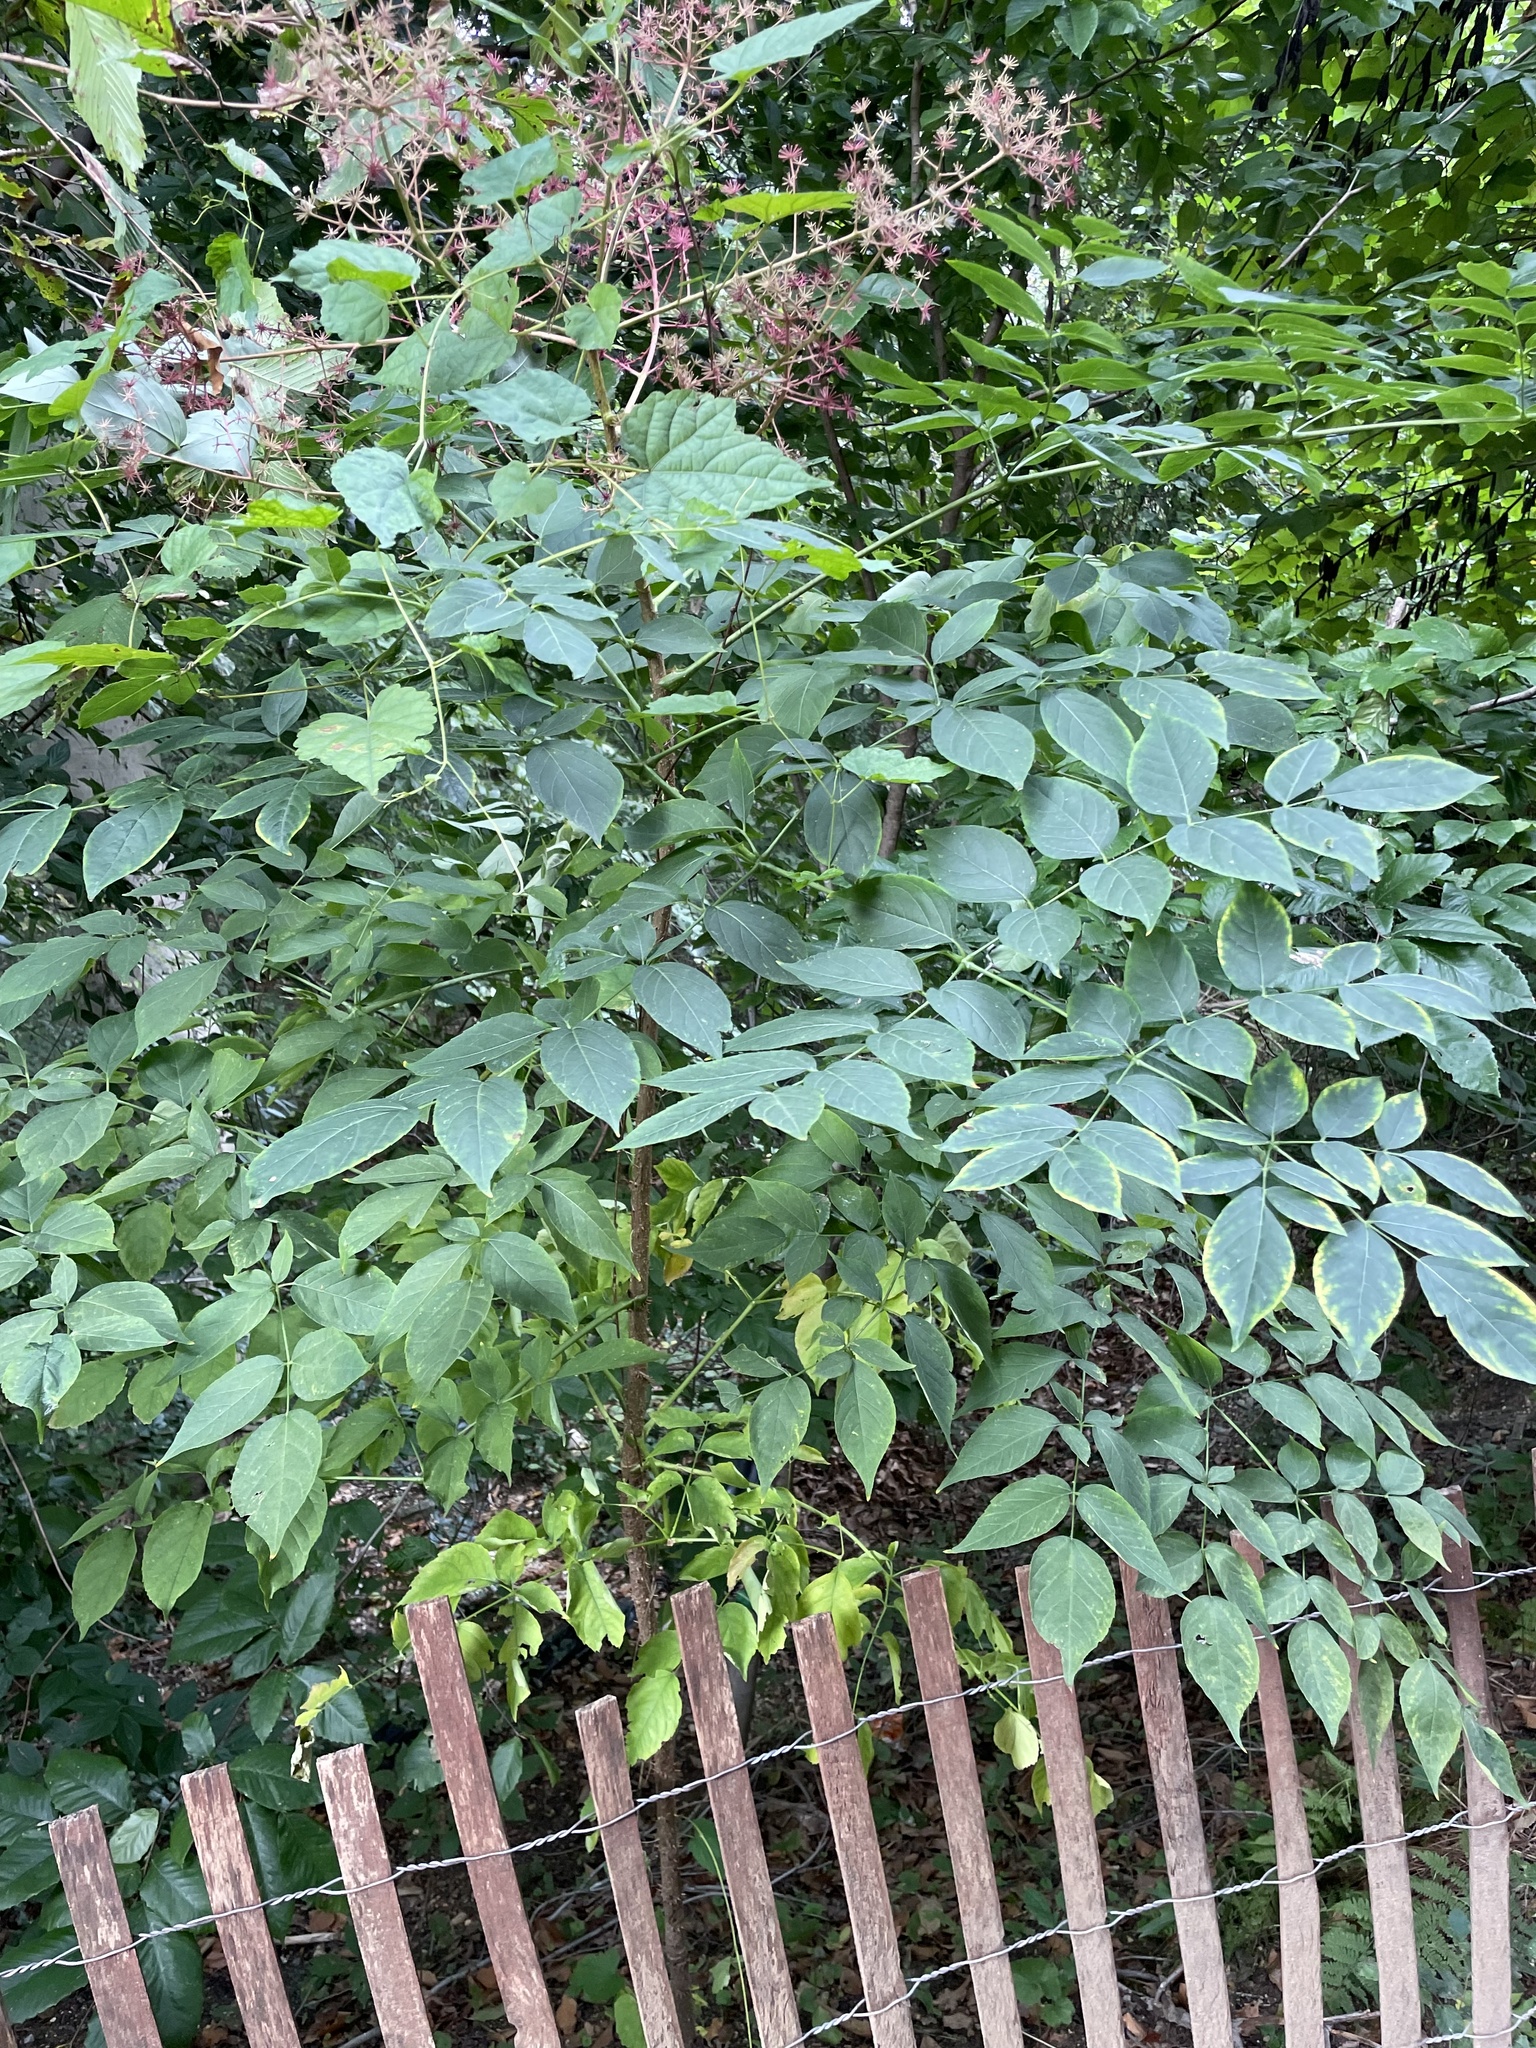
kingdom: Plantae
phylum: Tracheophyta
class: Magnoliopsida
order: Apiales
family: Araliaceae
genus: Aralia
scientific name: Aralia spinosa
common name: Hercules'-club
